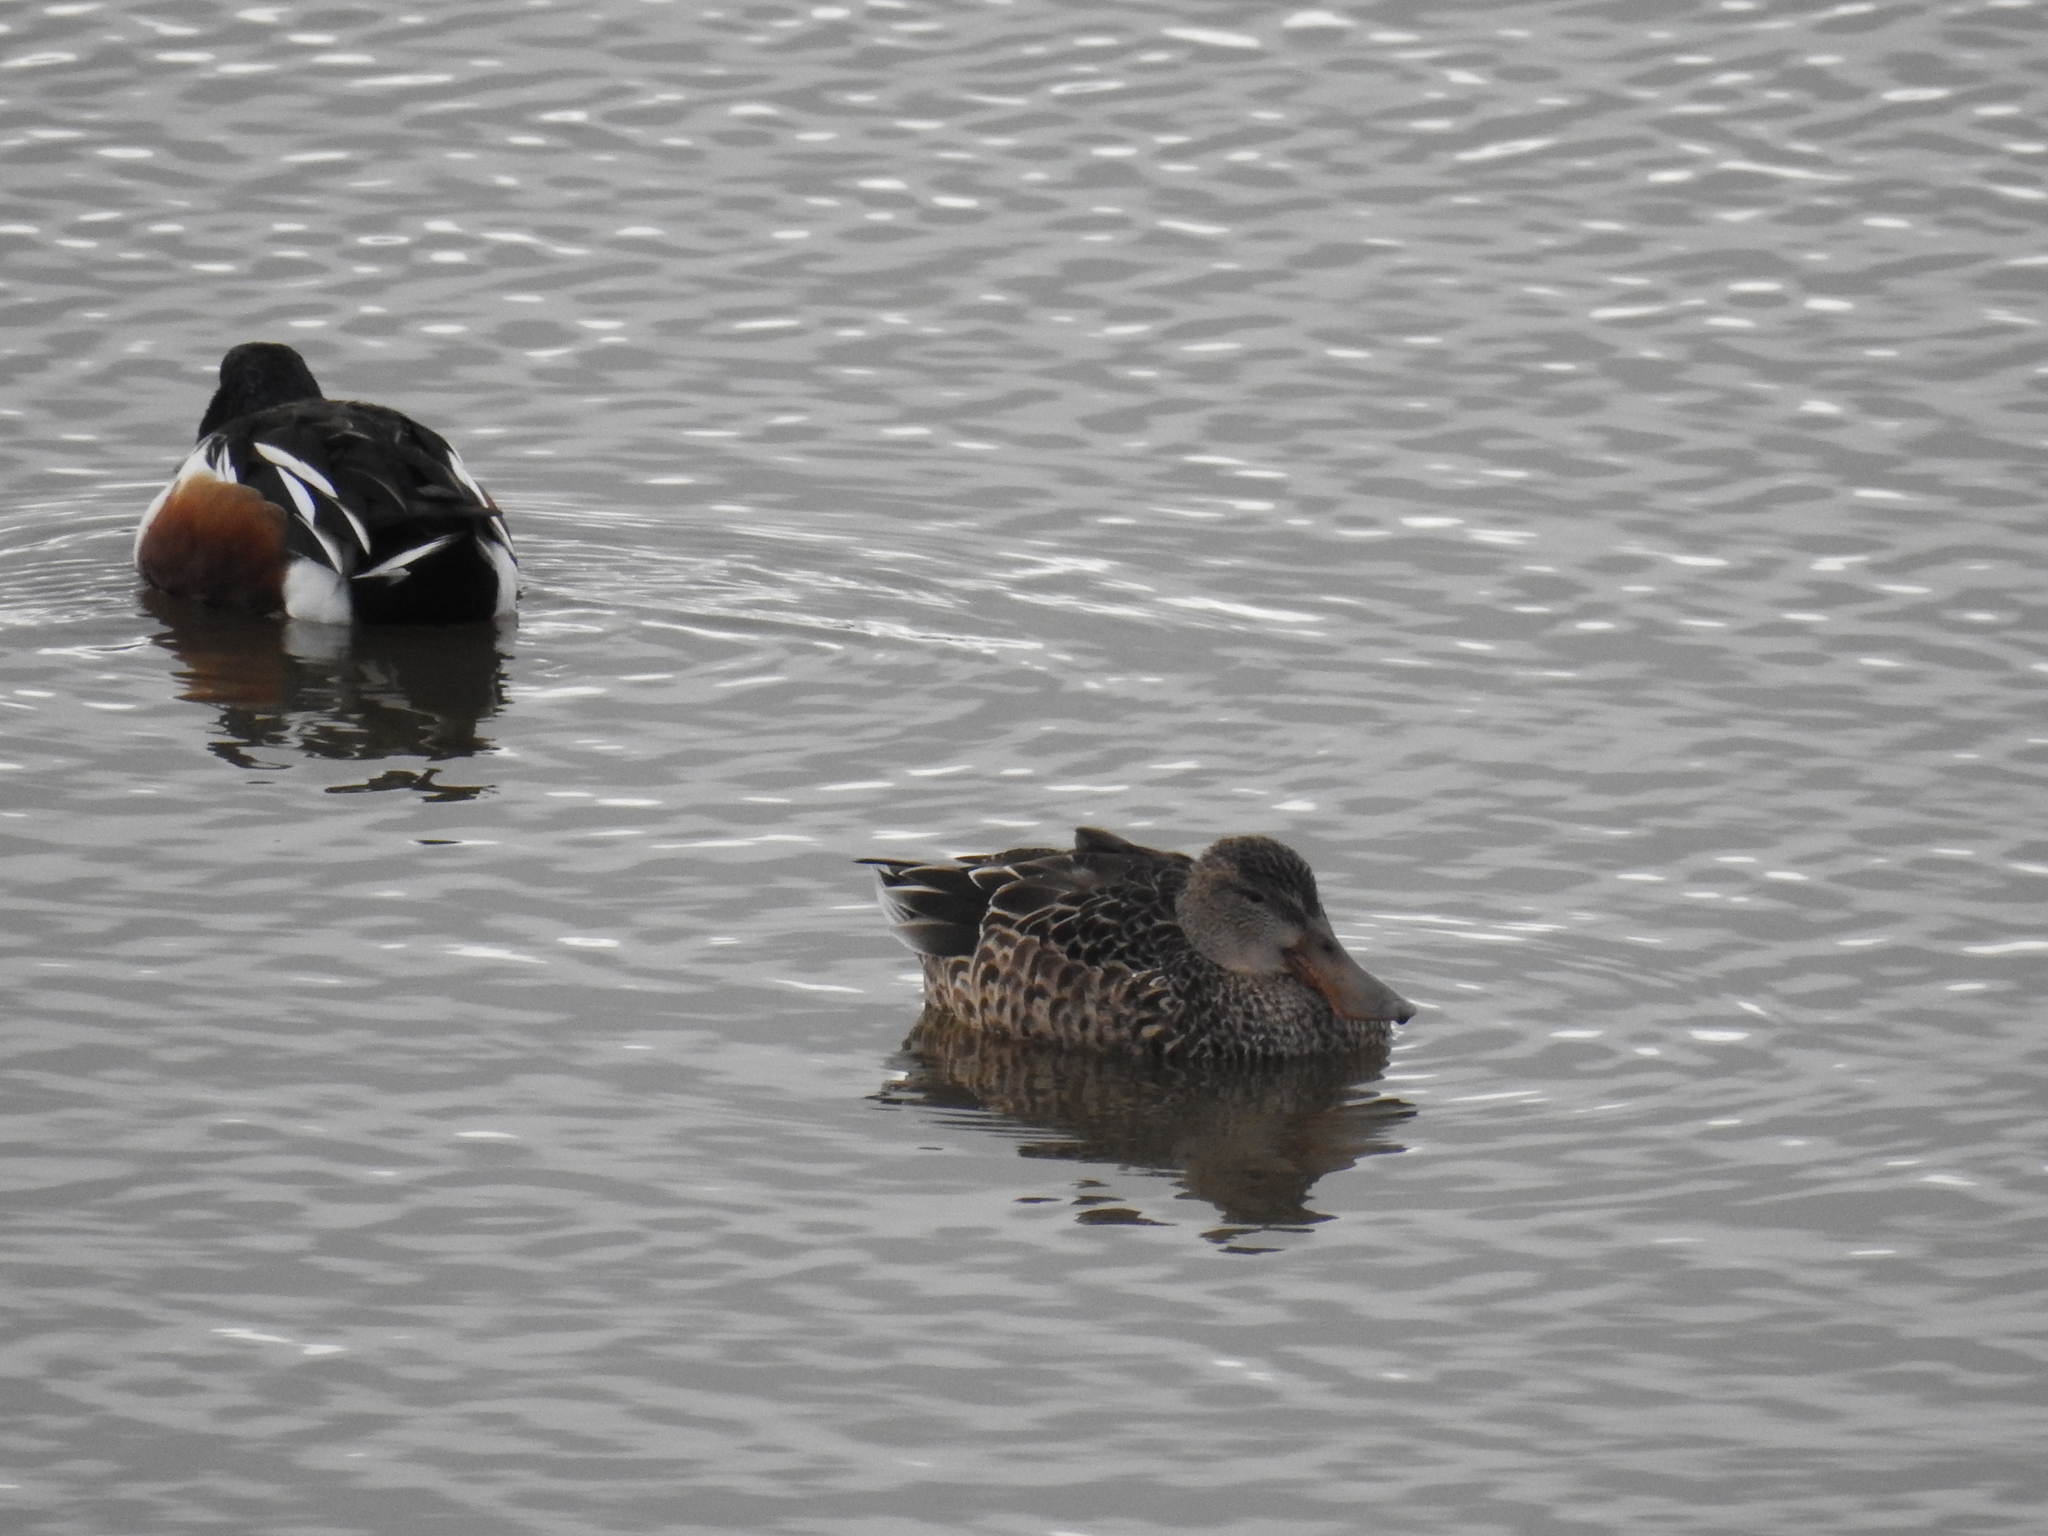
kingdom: Animalia
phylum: Chordata
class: Aves
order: Anseriformes
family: Anatidae
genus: Spatula
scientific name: Spatula clypeata
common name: Northern shoveler
